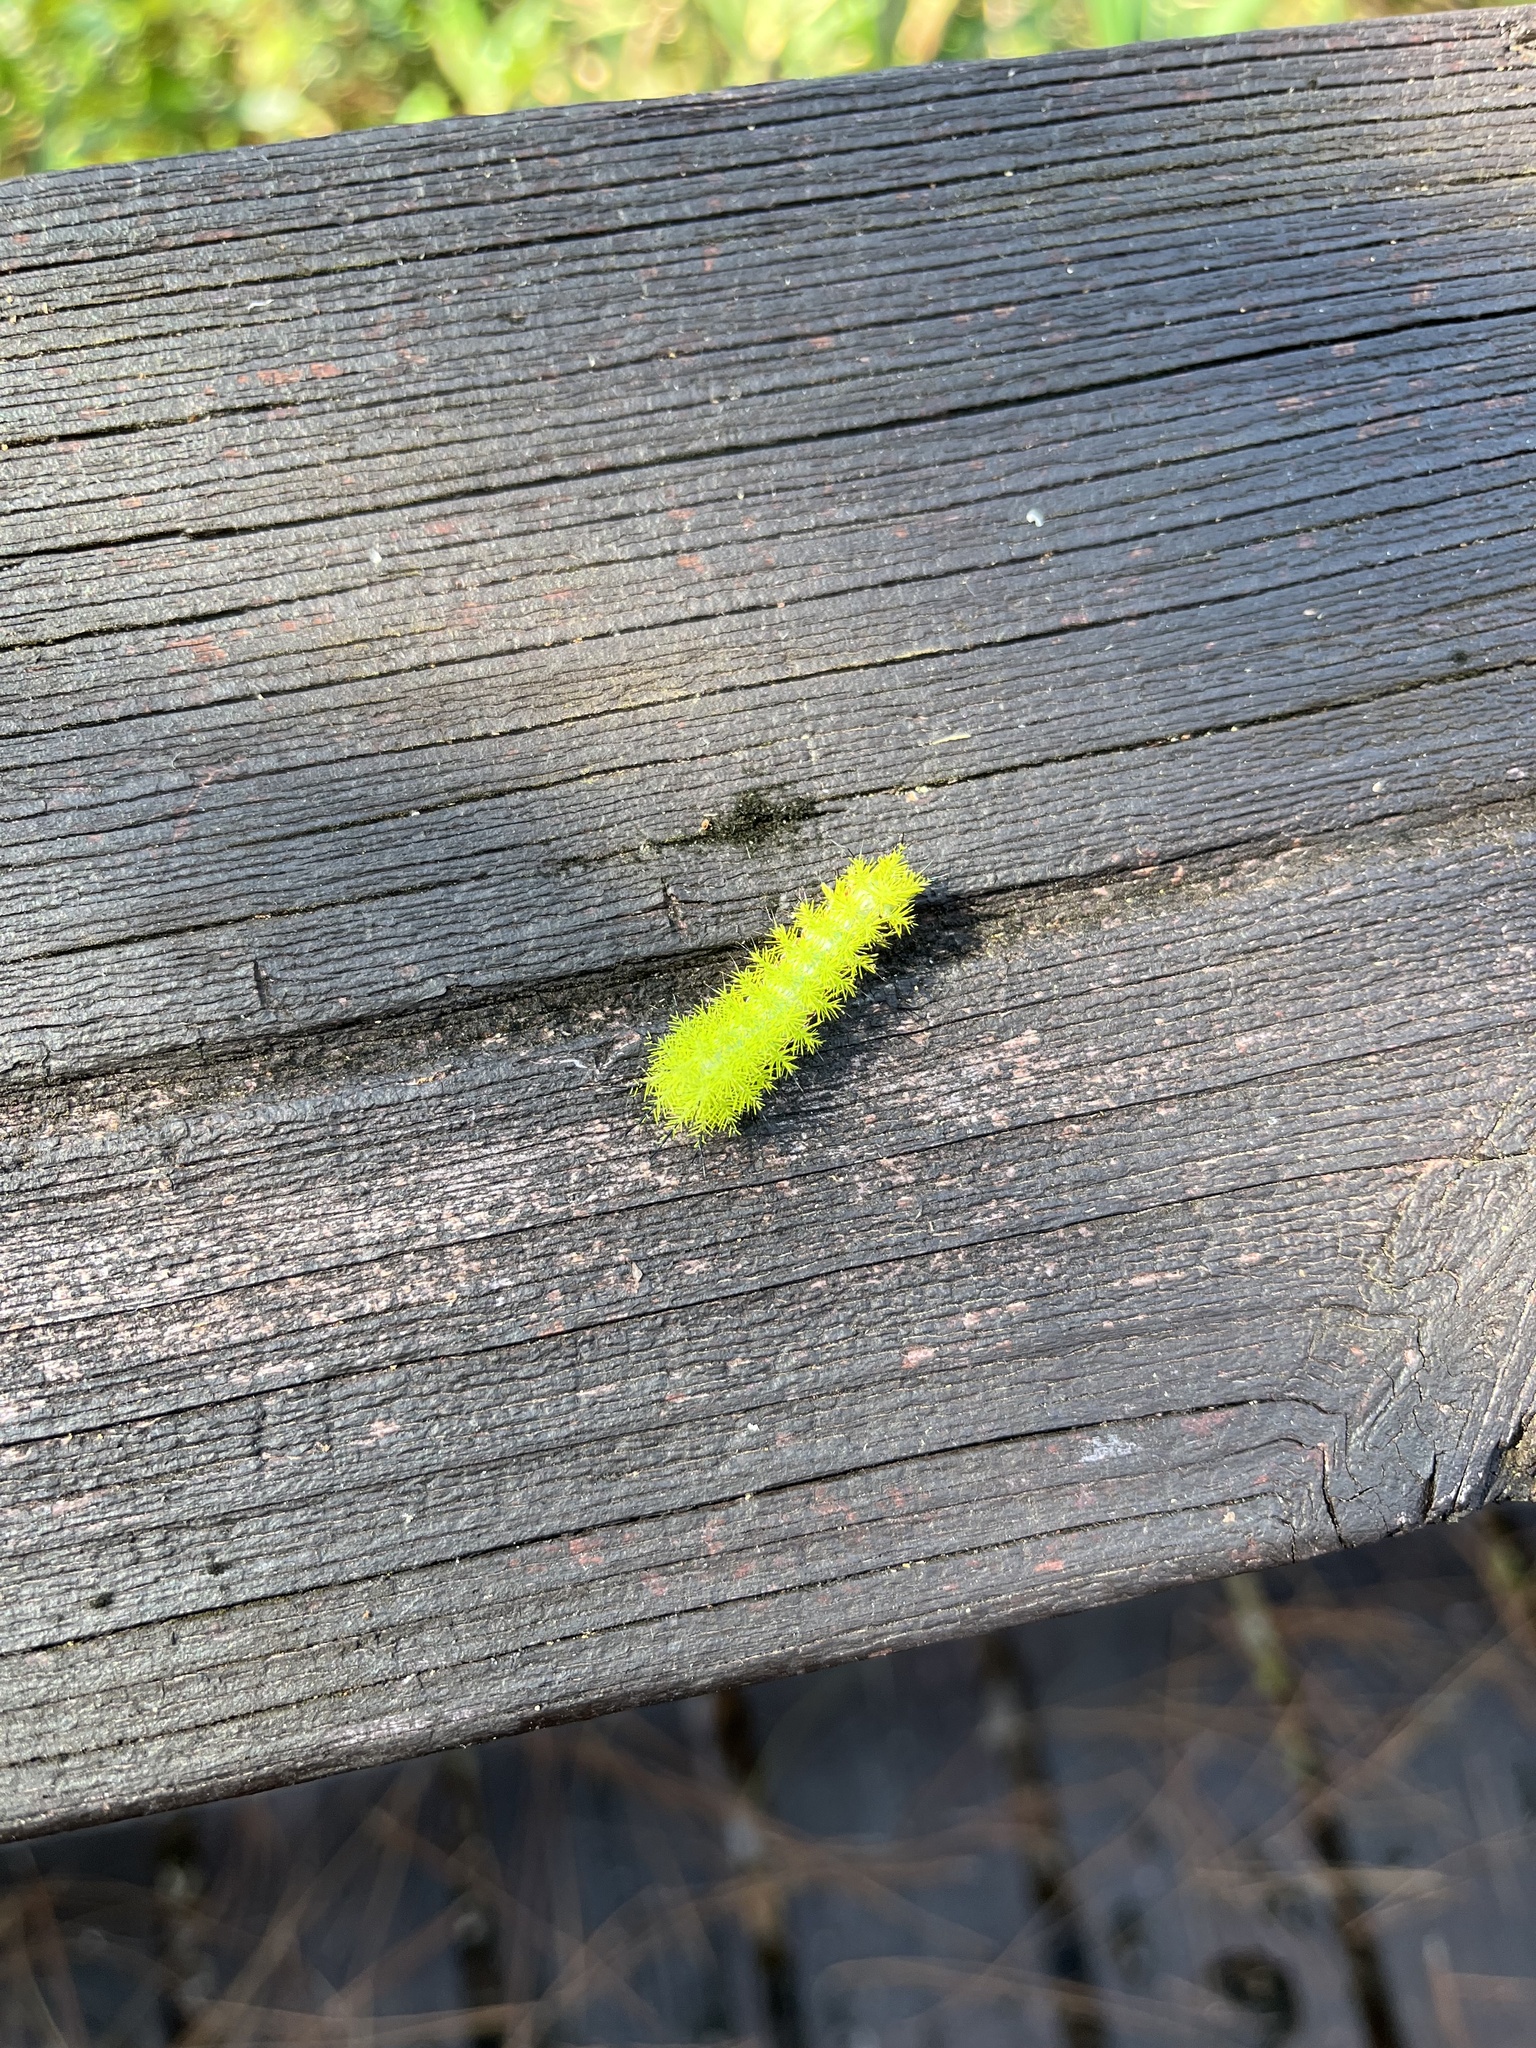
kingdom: Animalia
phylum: Arthropoda
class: Insecta
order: Lepidoptera
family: Saturniidae
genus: Automeris
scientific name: Automeris io
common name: Io moth
